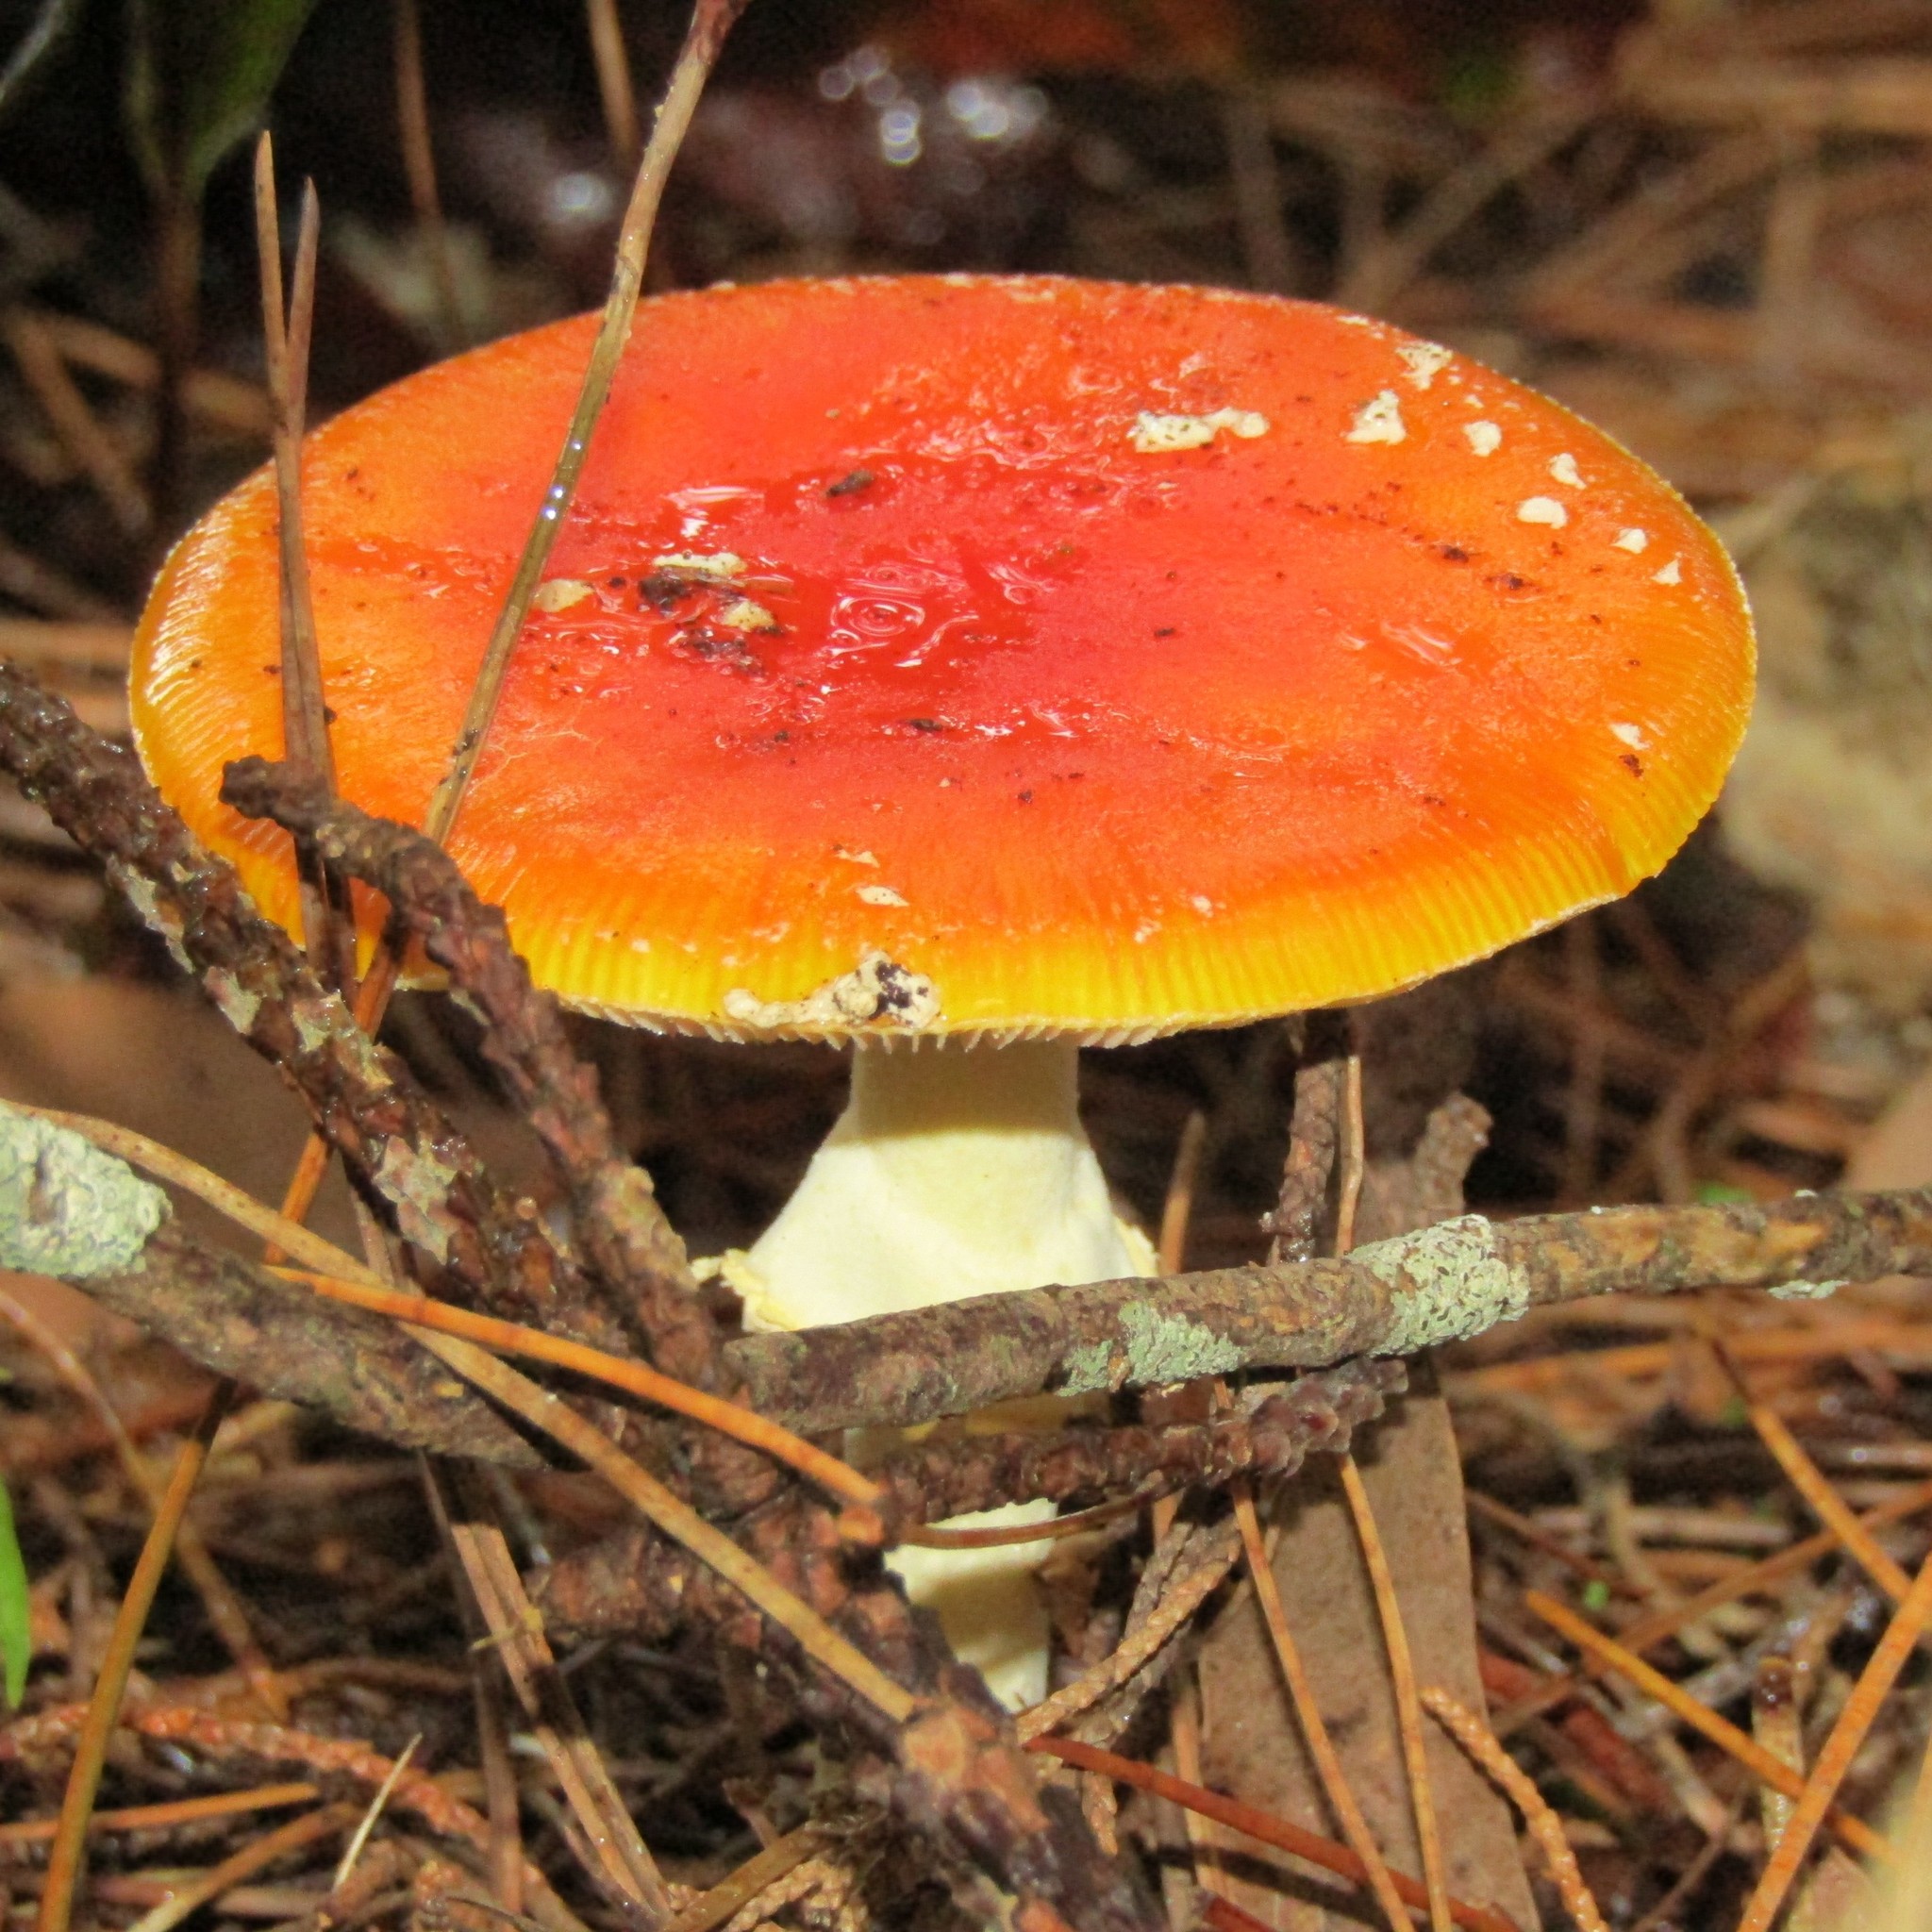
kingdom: Fungi
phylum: Basidiomycota
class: Agaricomycetes
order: Agaricales
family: Amanitaceae
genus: Amanita
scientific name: Amanita muscaria
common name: Fly agaric
